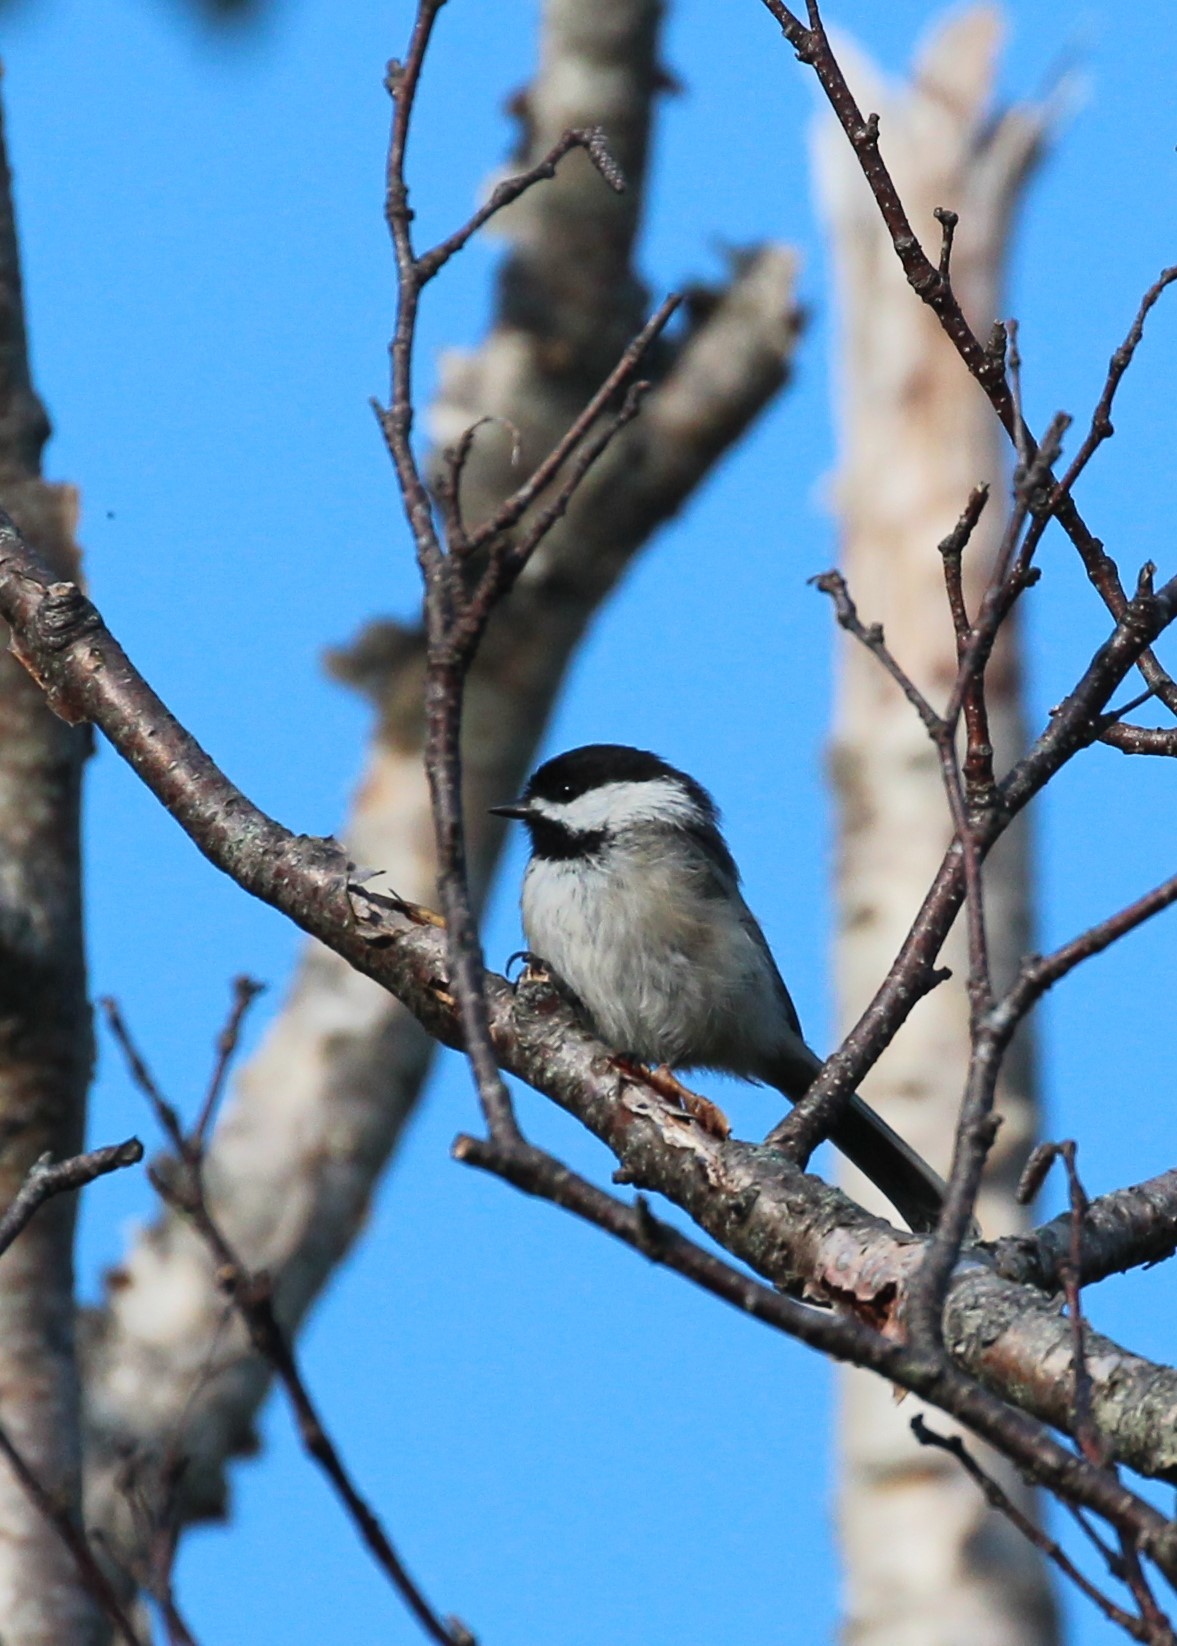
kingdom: Animalia
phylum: Chordata
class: Aves
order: Passeriformes
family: Paridae
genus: Poecile
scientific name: Poecile atricapillus
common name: Black-capped chickadee
